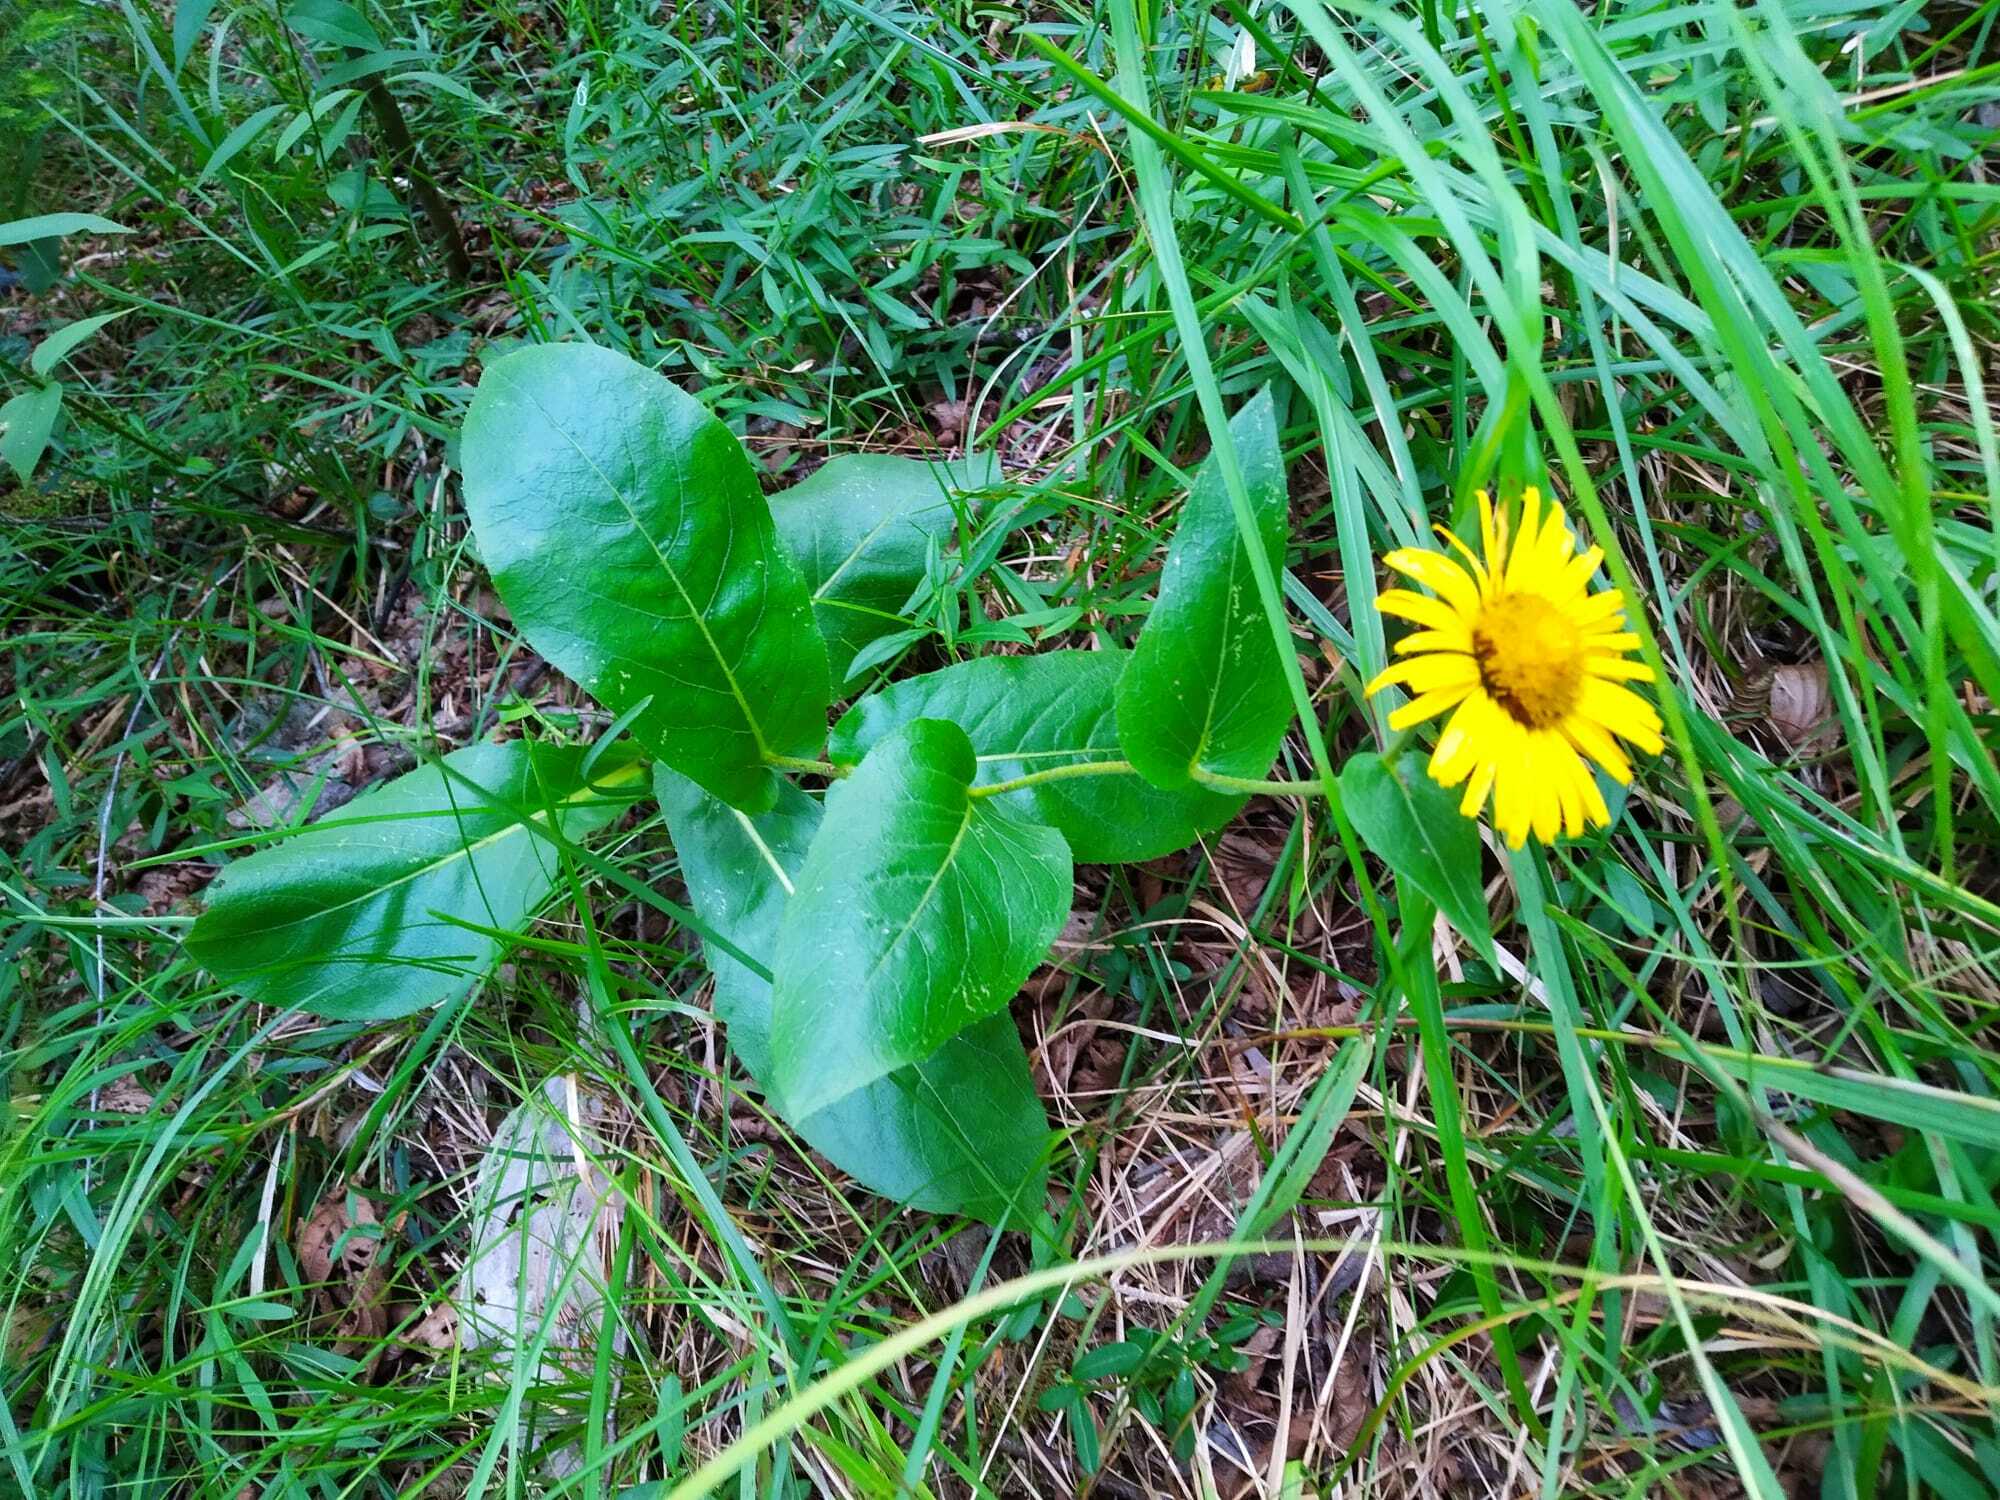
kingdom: Plantae
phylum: Tracheophyta
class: Magnoliopsida
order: Asterales
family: Asteraceae
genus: Buphthalmum
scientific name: Buphthalmum speciosissimum
